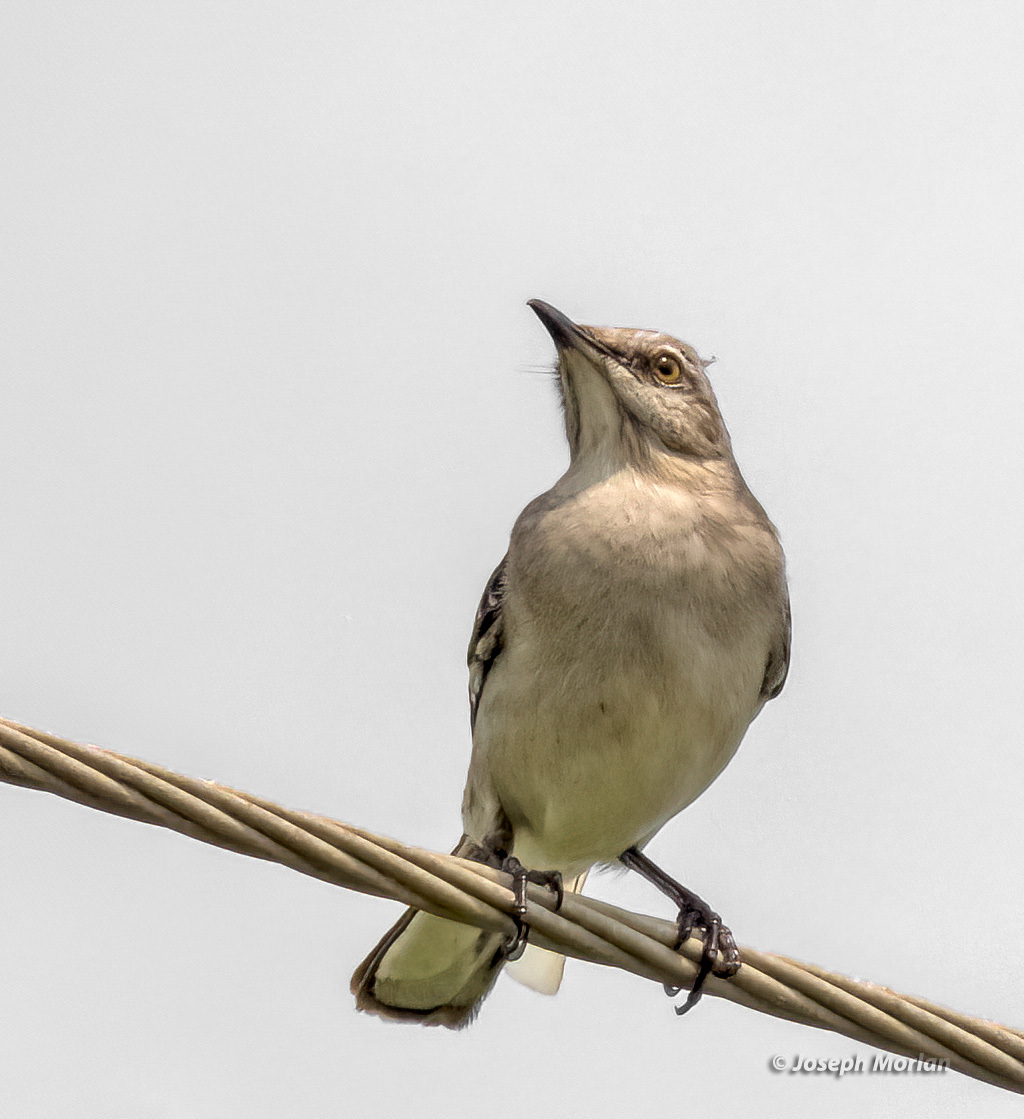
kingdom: Animalia
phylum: Chordata
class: Aves
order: Passeriformes
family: Mimidae
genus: Mimus
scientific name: Mimus polyglottos
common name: Northern mockingbird
